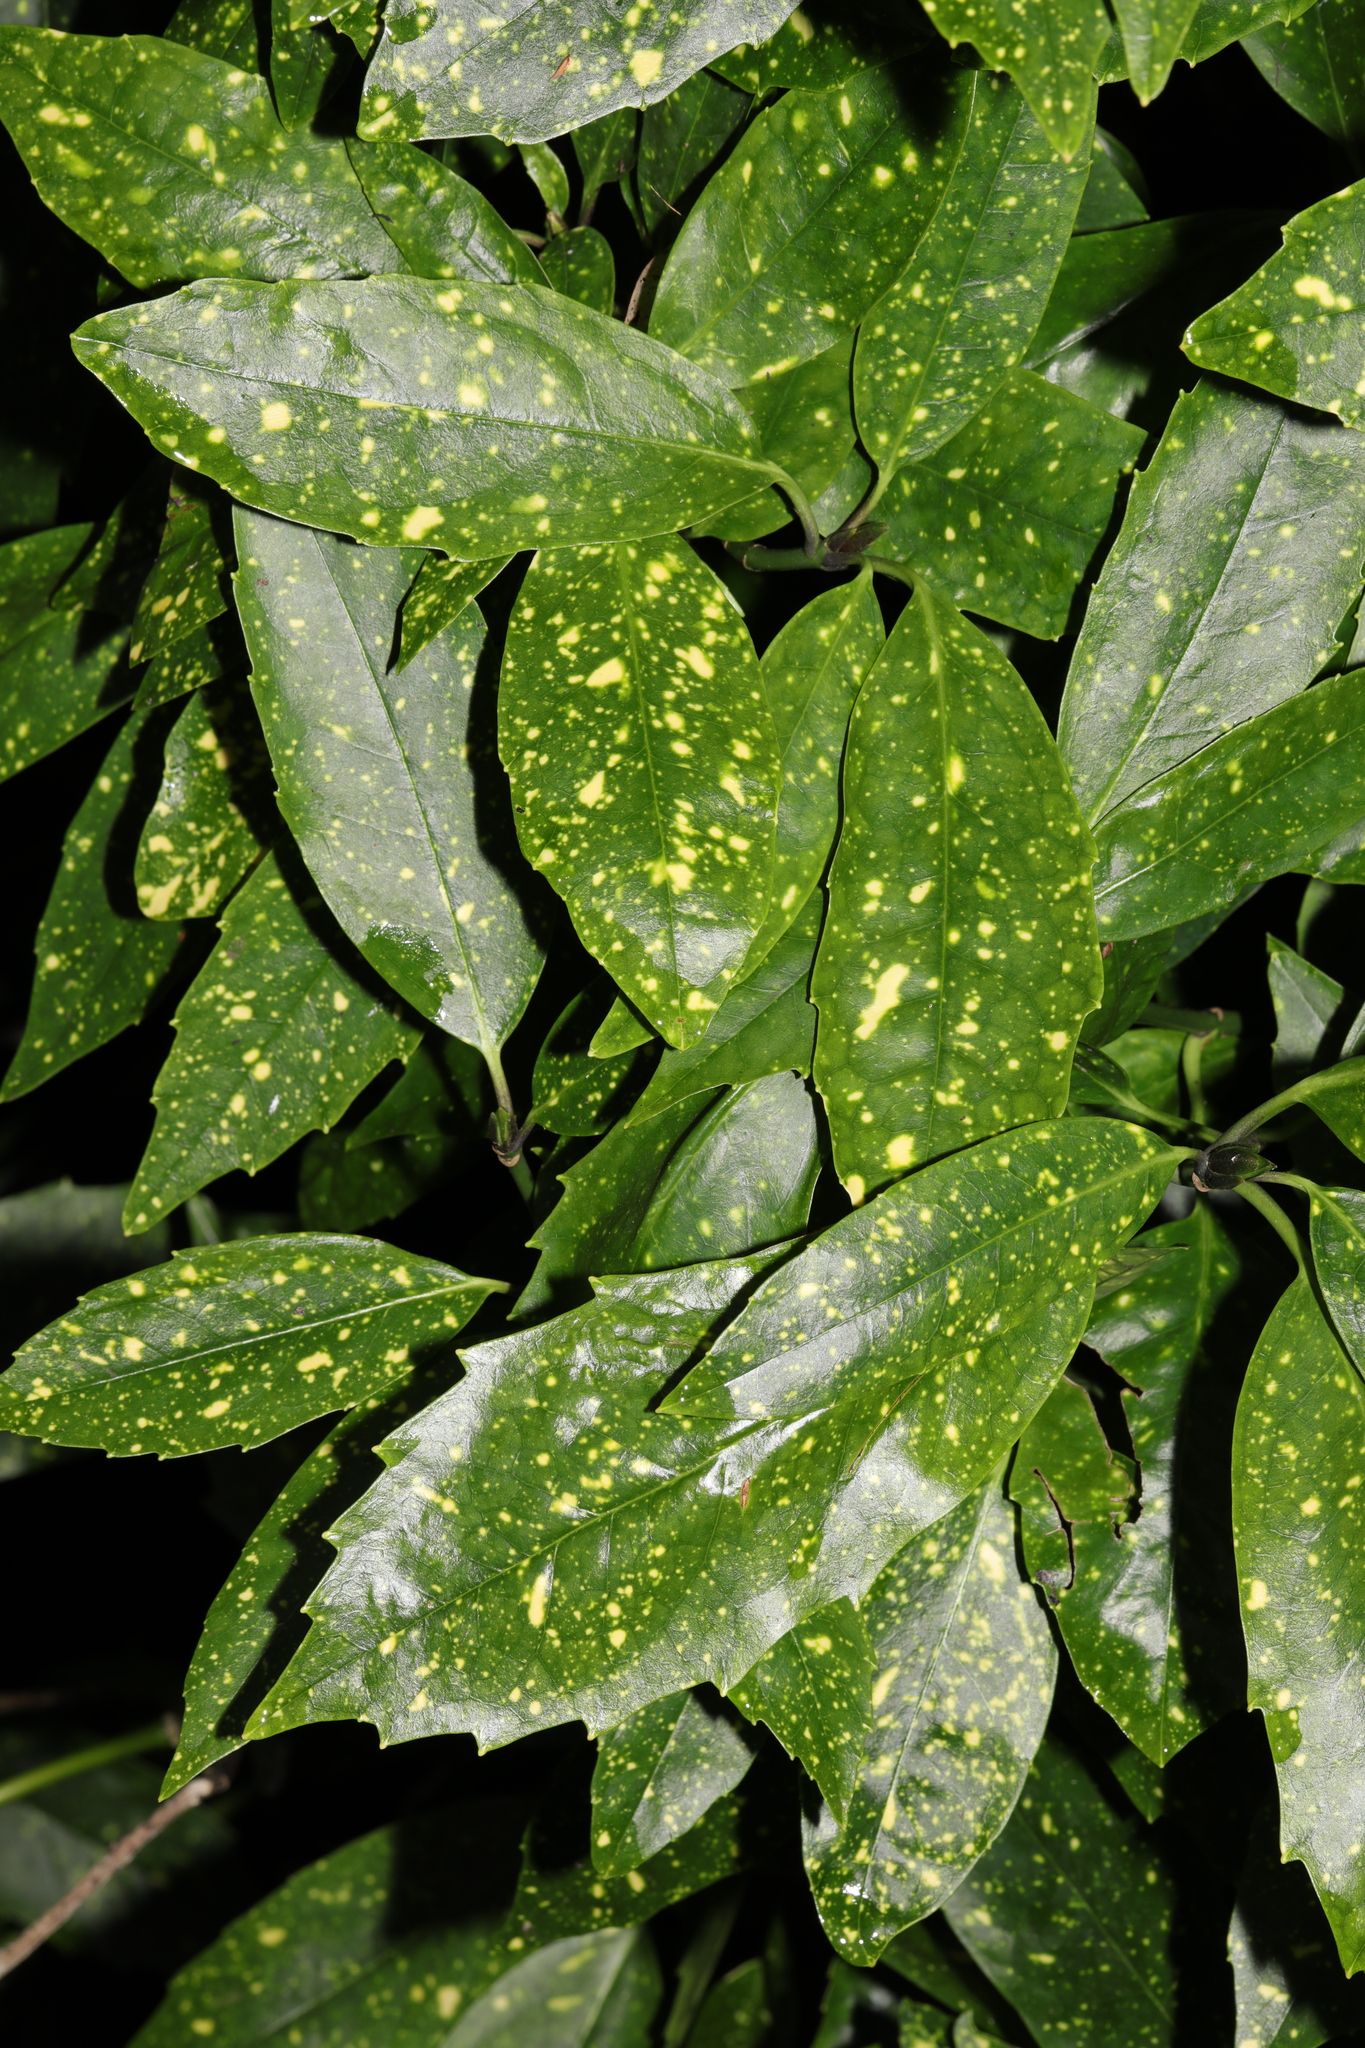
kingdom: Plantae
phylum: Tracheophyta
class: Magnoliopsida
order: Garryales
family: Garryaceae
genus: Aucuba
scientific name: Aucuba japonica
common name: Spotted-laurel
